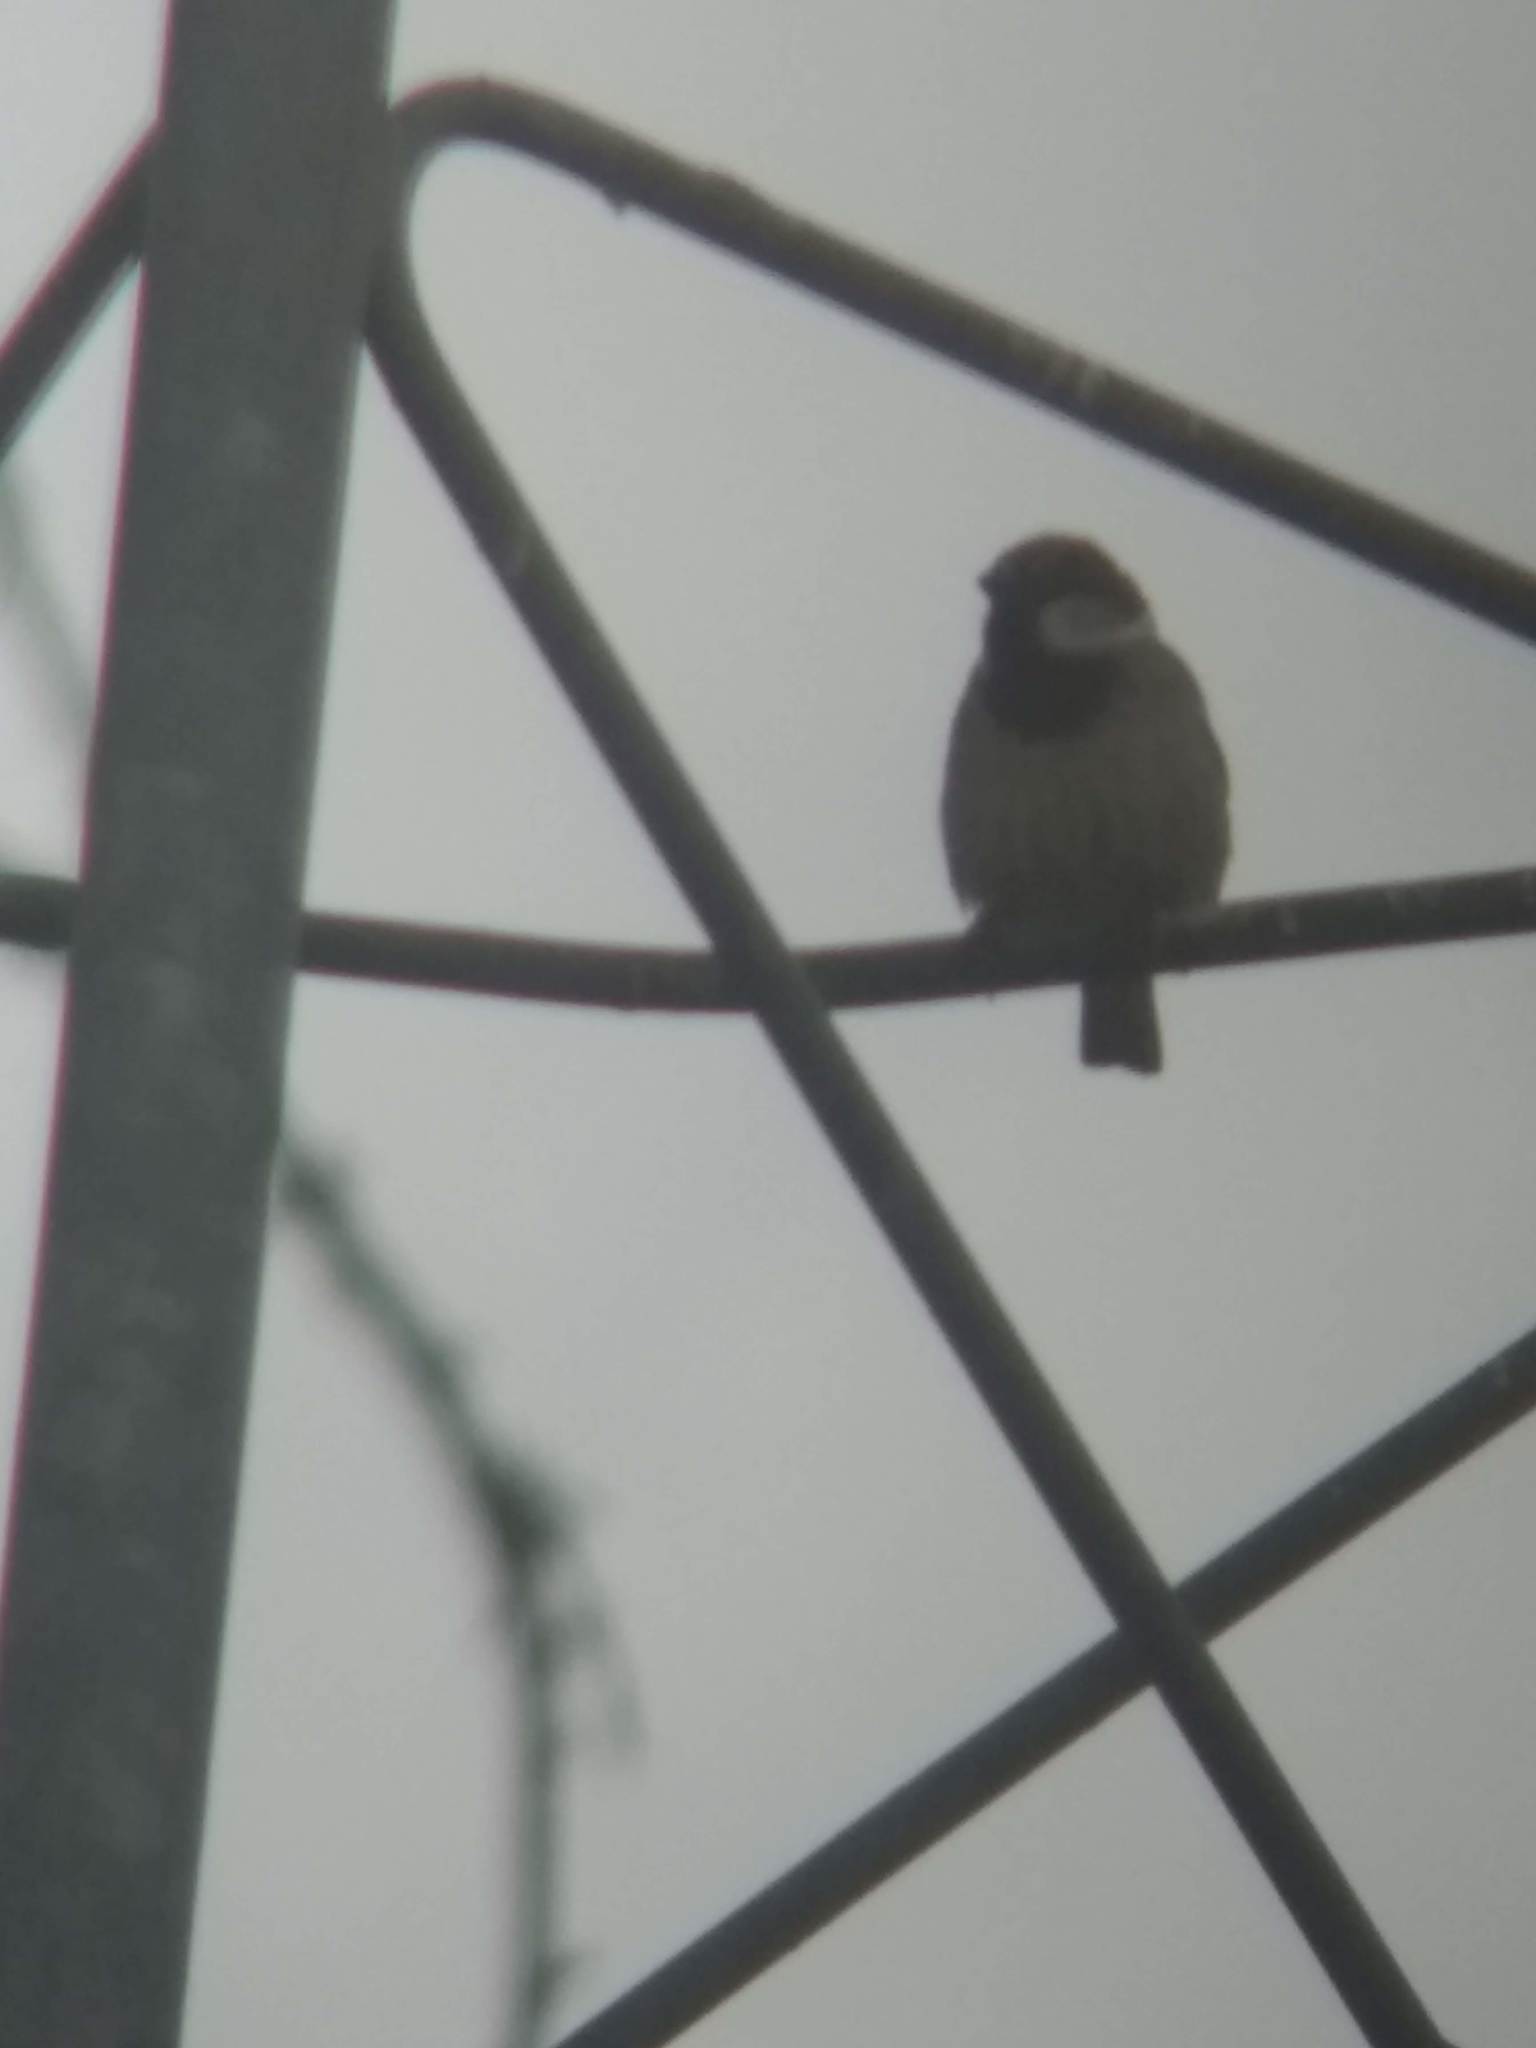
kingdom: Animalia
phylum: Chordata
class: Aves
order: Passeriformes
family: Passeridae
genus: Passer
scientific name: Passer domesticus
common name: House sparrow
